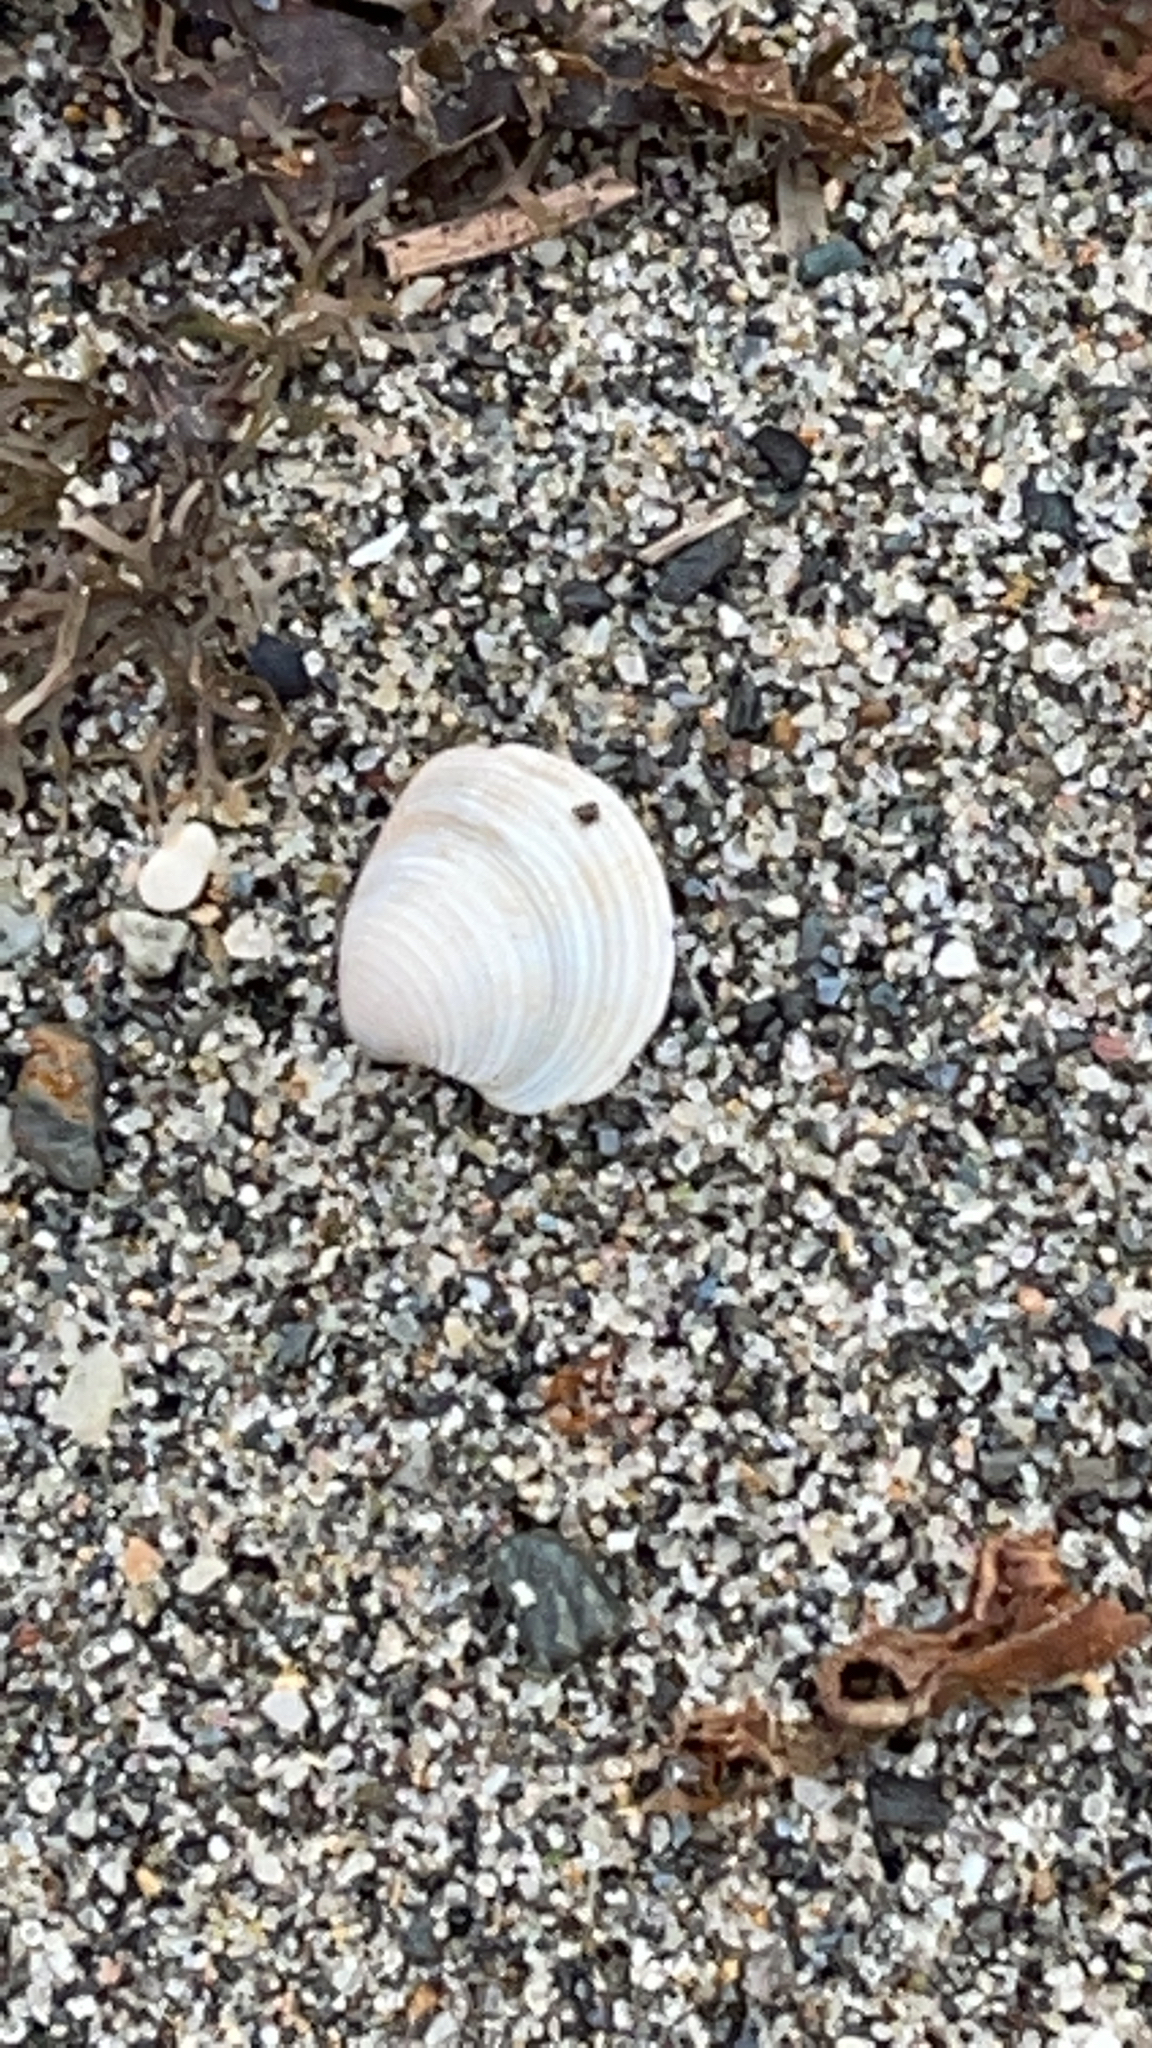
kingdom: Animalia
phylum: Mollusca
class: Bivalvia
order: Venerida
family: Veneridae
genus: Chamelea
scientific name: Chamelea gallina
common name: Chicken venus
